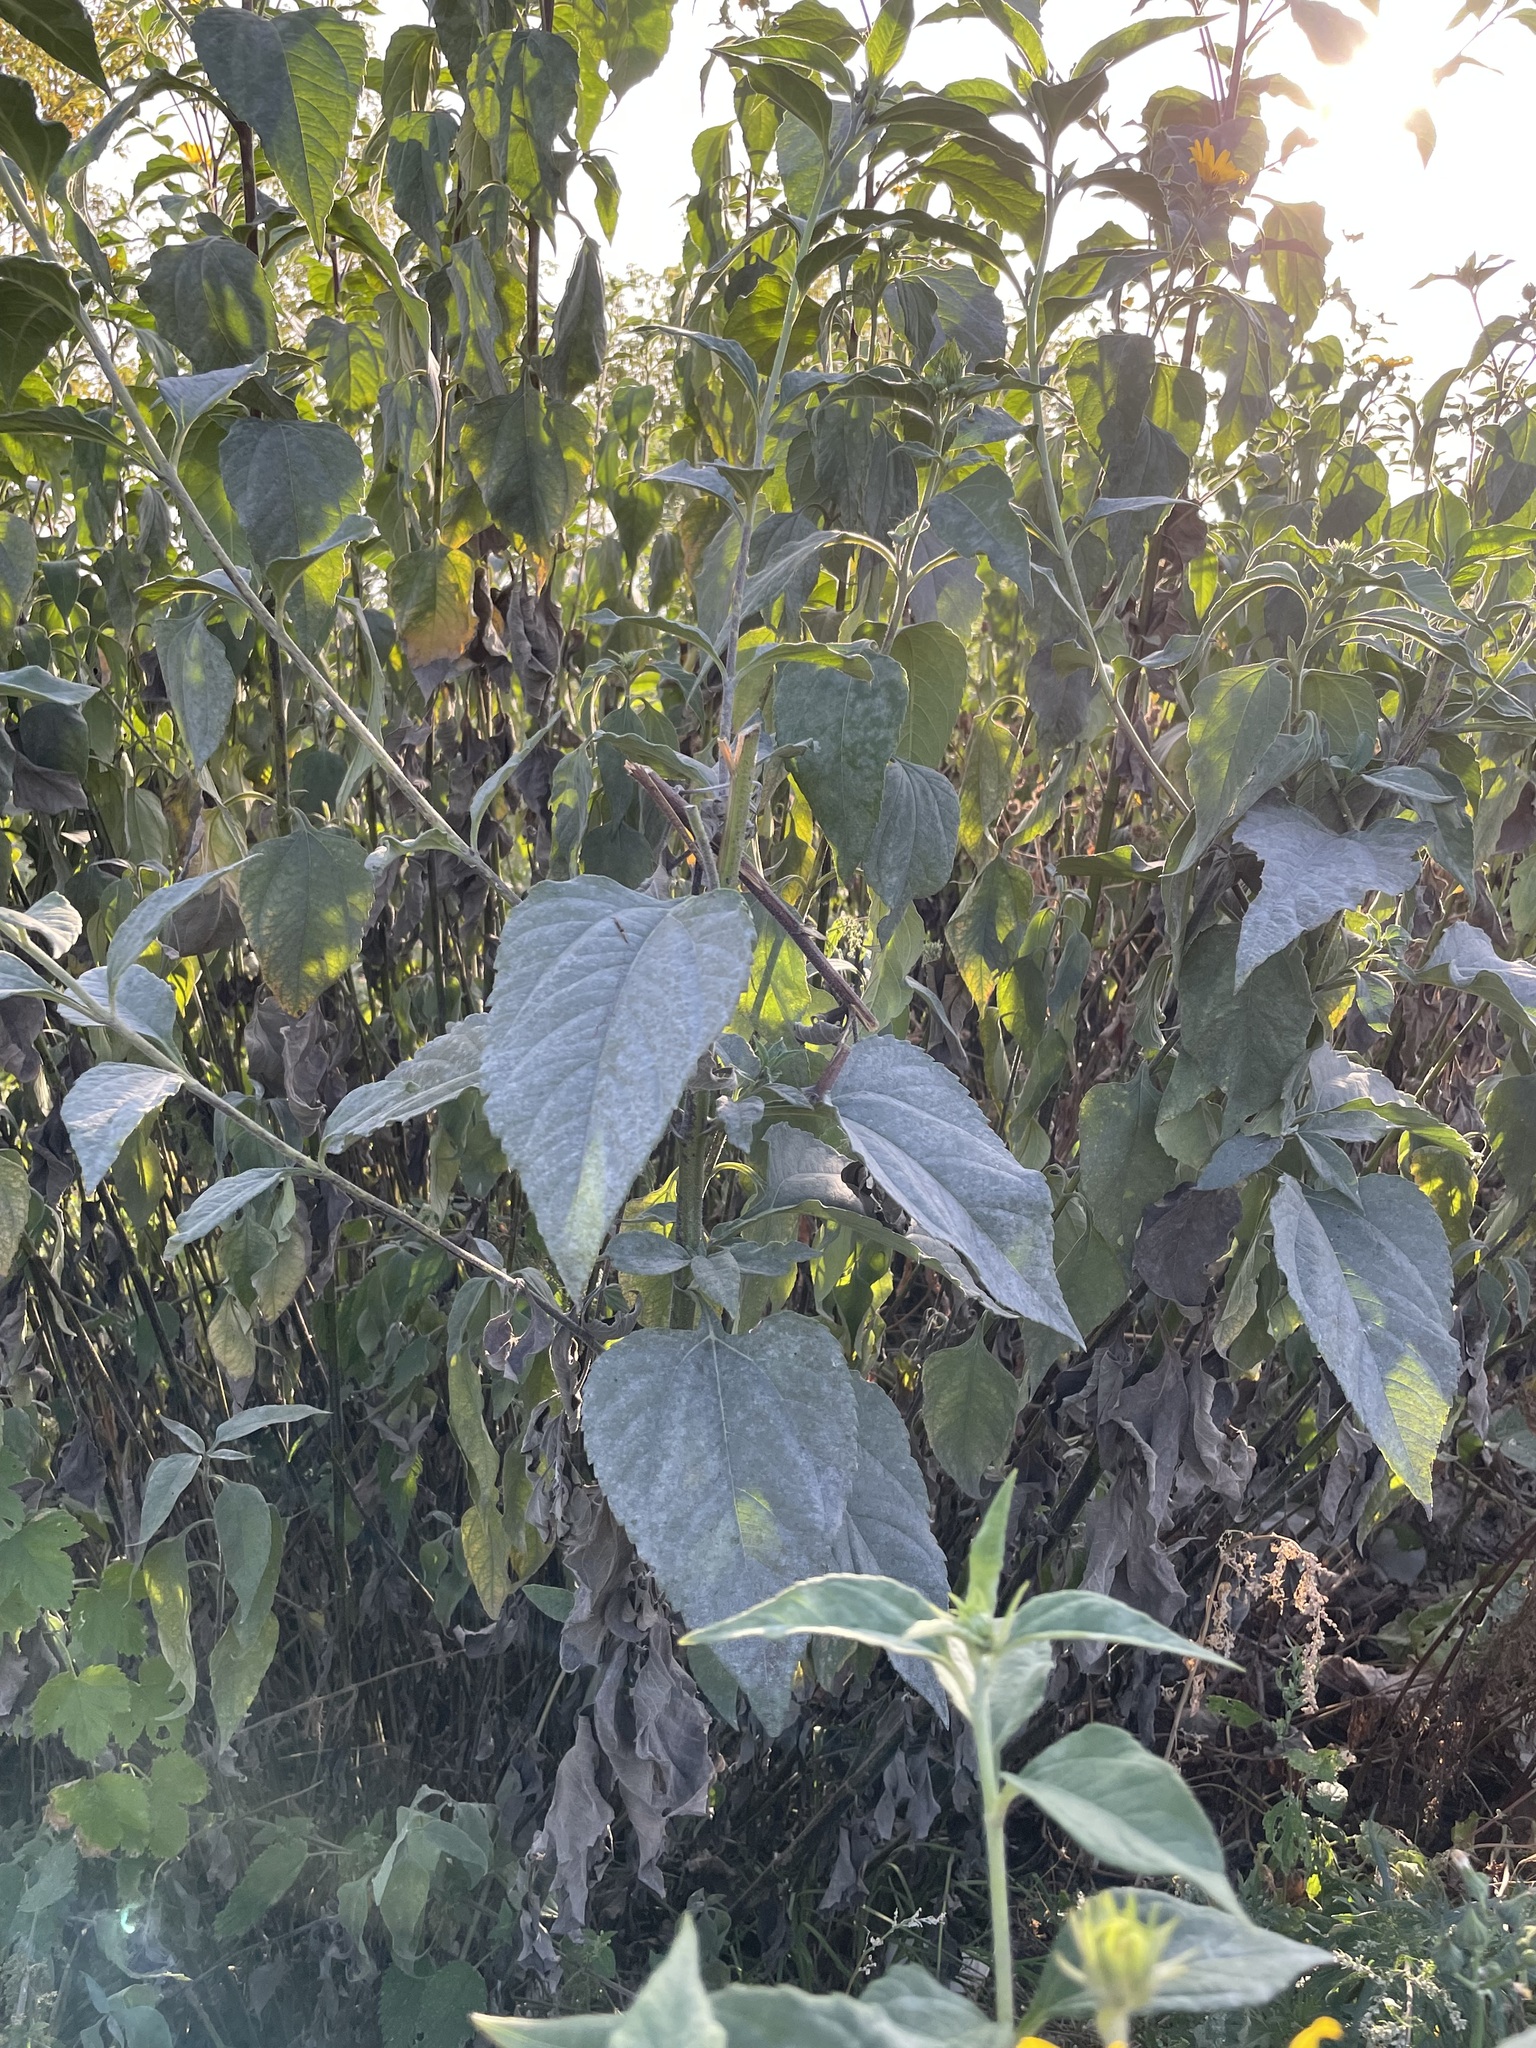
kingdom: Plantae
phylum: Tracheophyta
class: Magnoliopsida
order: Asterales
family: Asteraceae
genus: Helianthus
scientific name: Helianthus tuberosus
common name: Jerusalem artichoke
